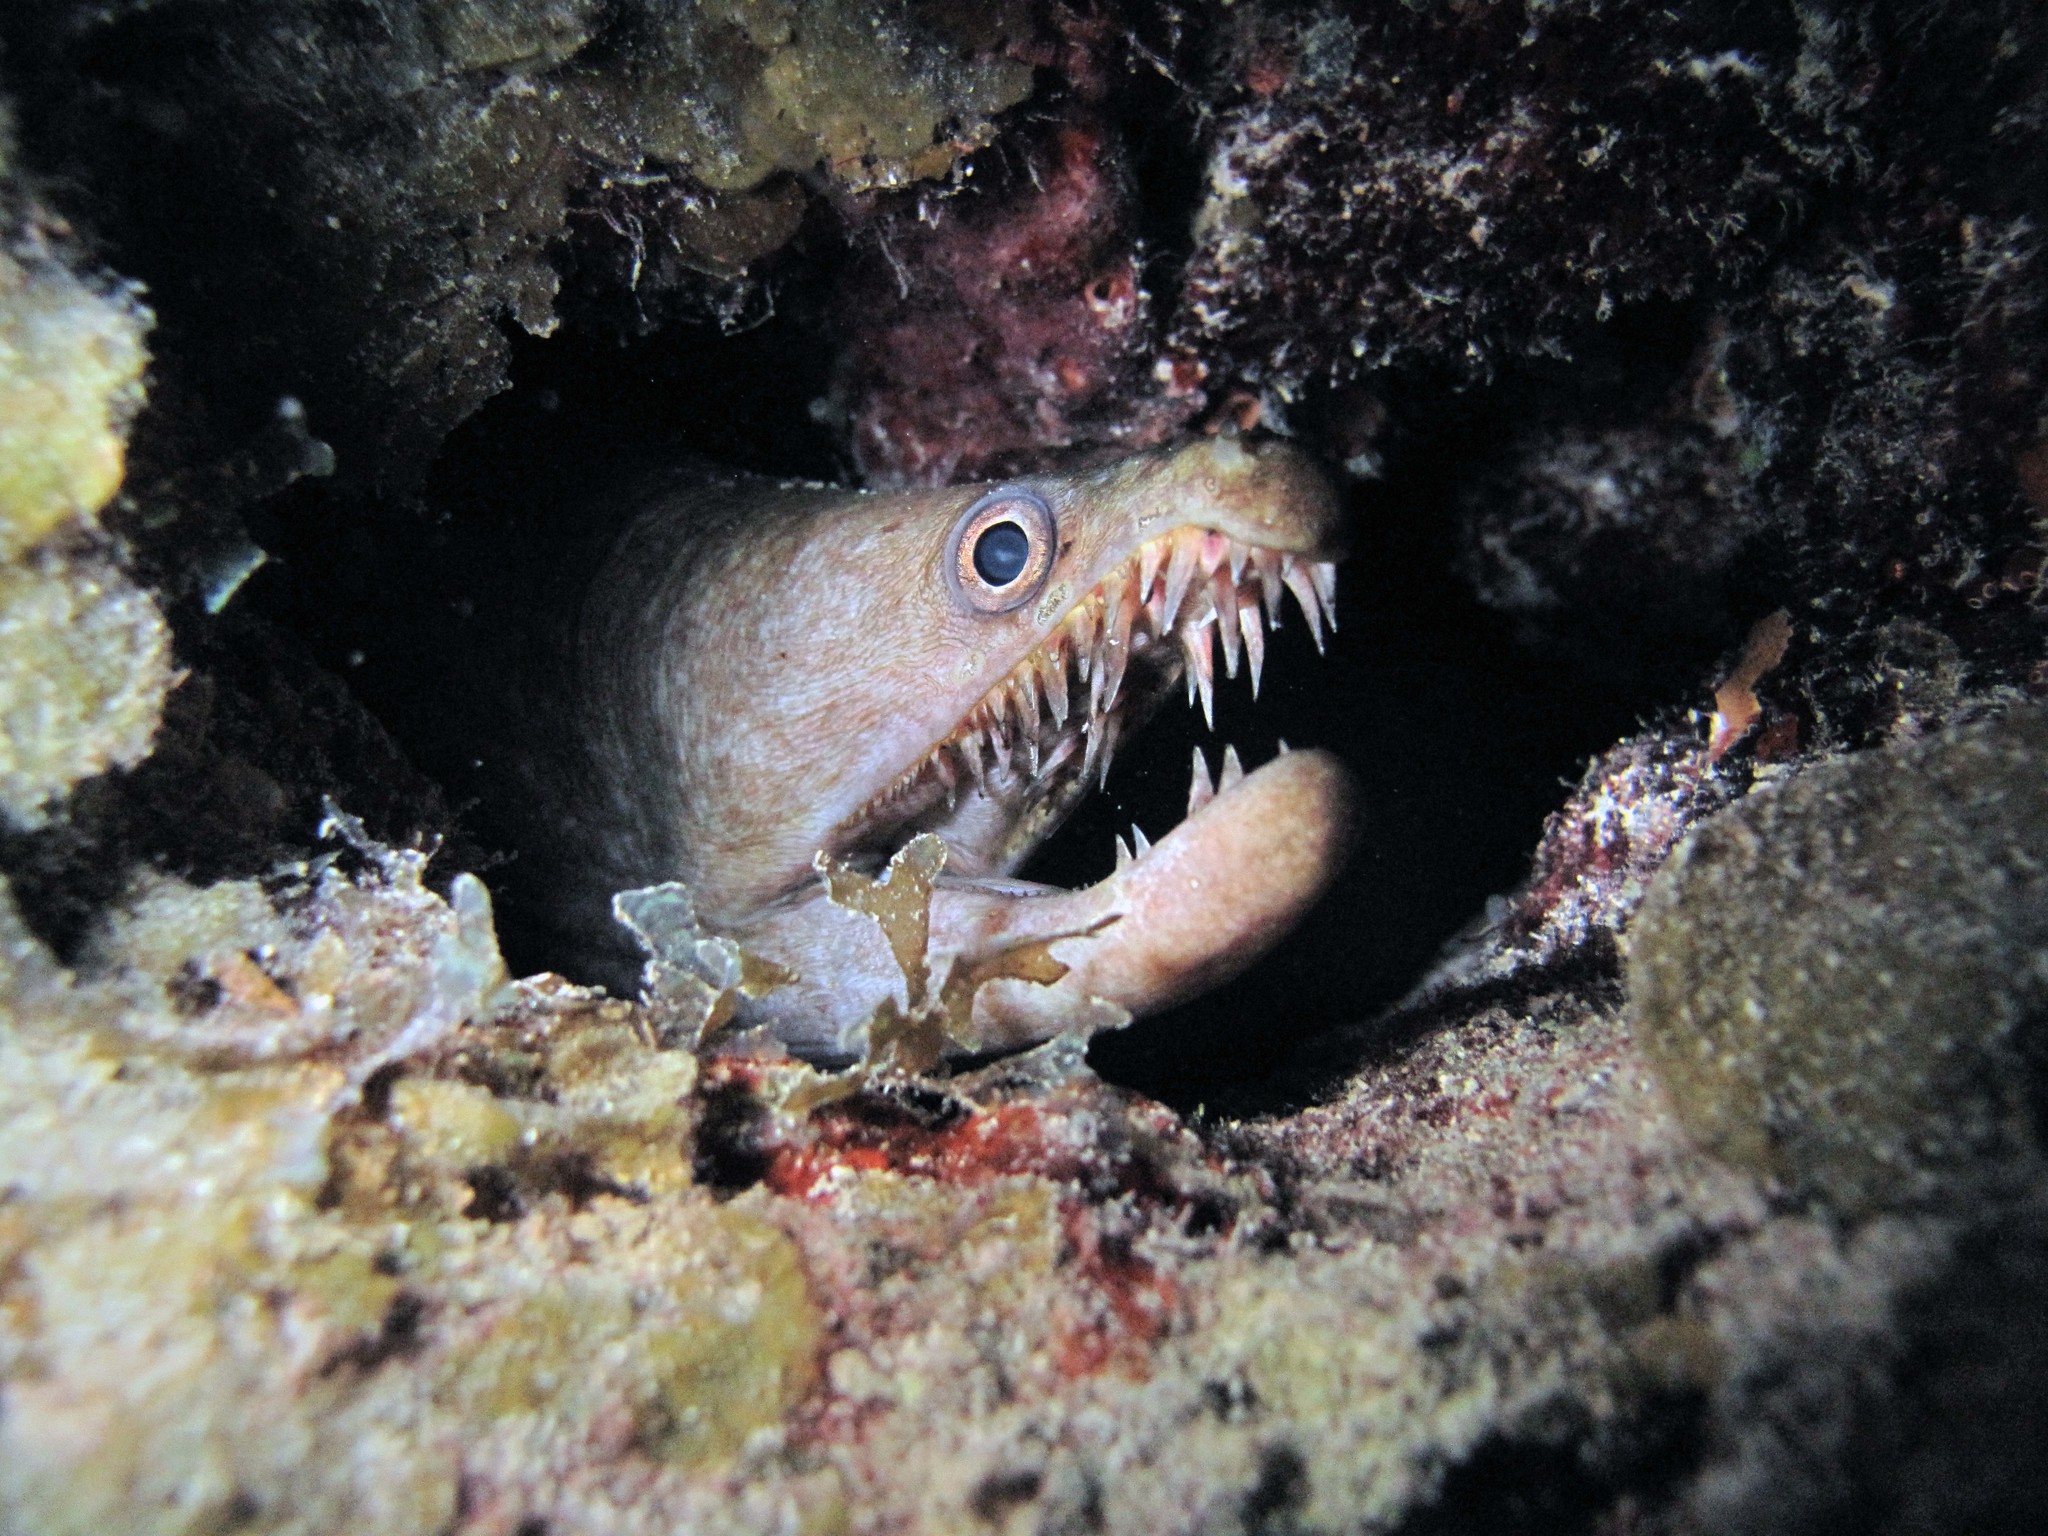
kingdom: Animalia
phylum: Chordata
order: Anguilliformes
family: Muraenidae
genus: Enchelycore
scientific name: Enchelycore nigricans
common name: Viper moray
